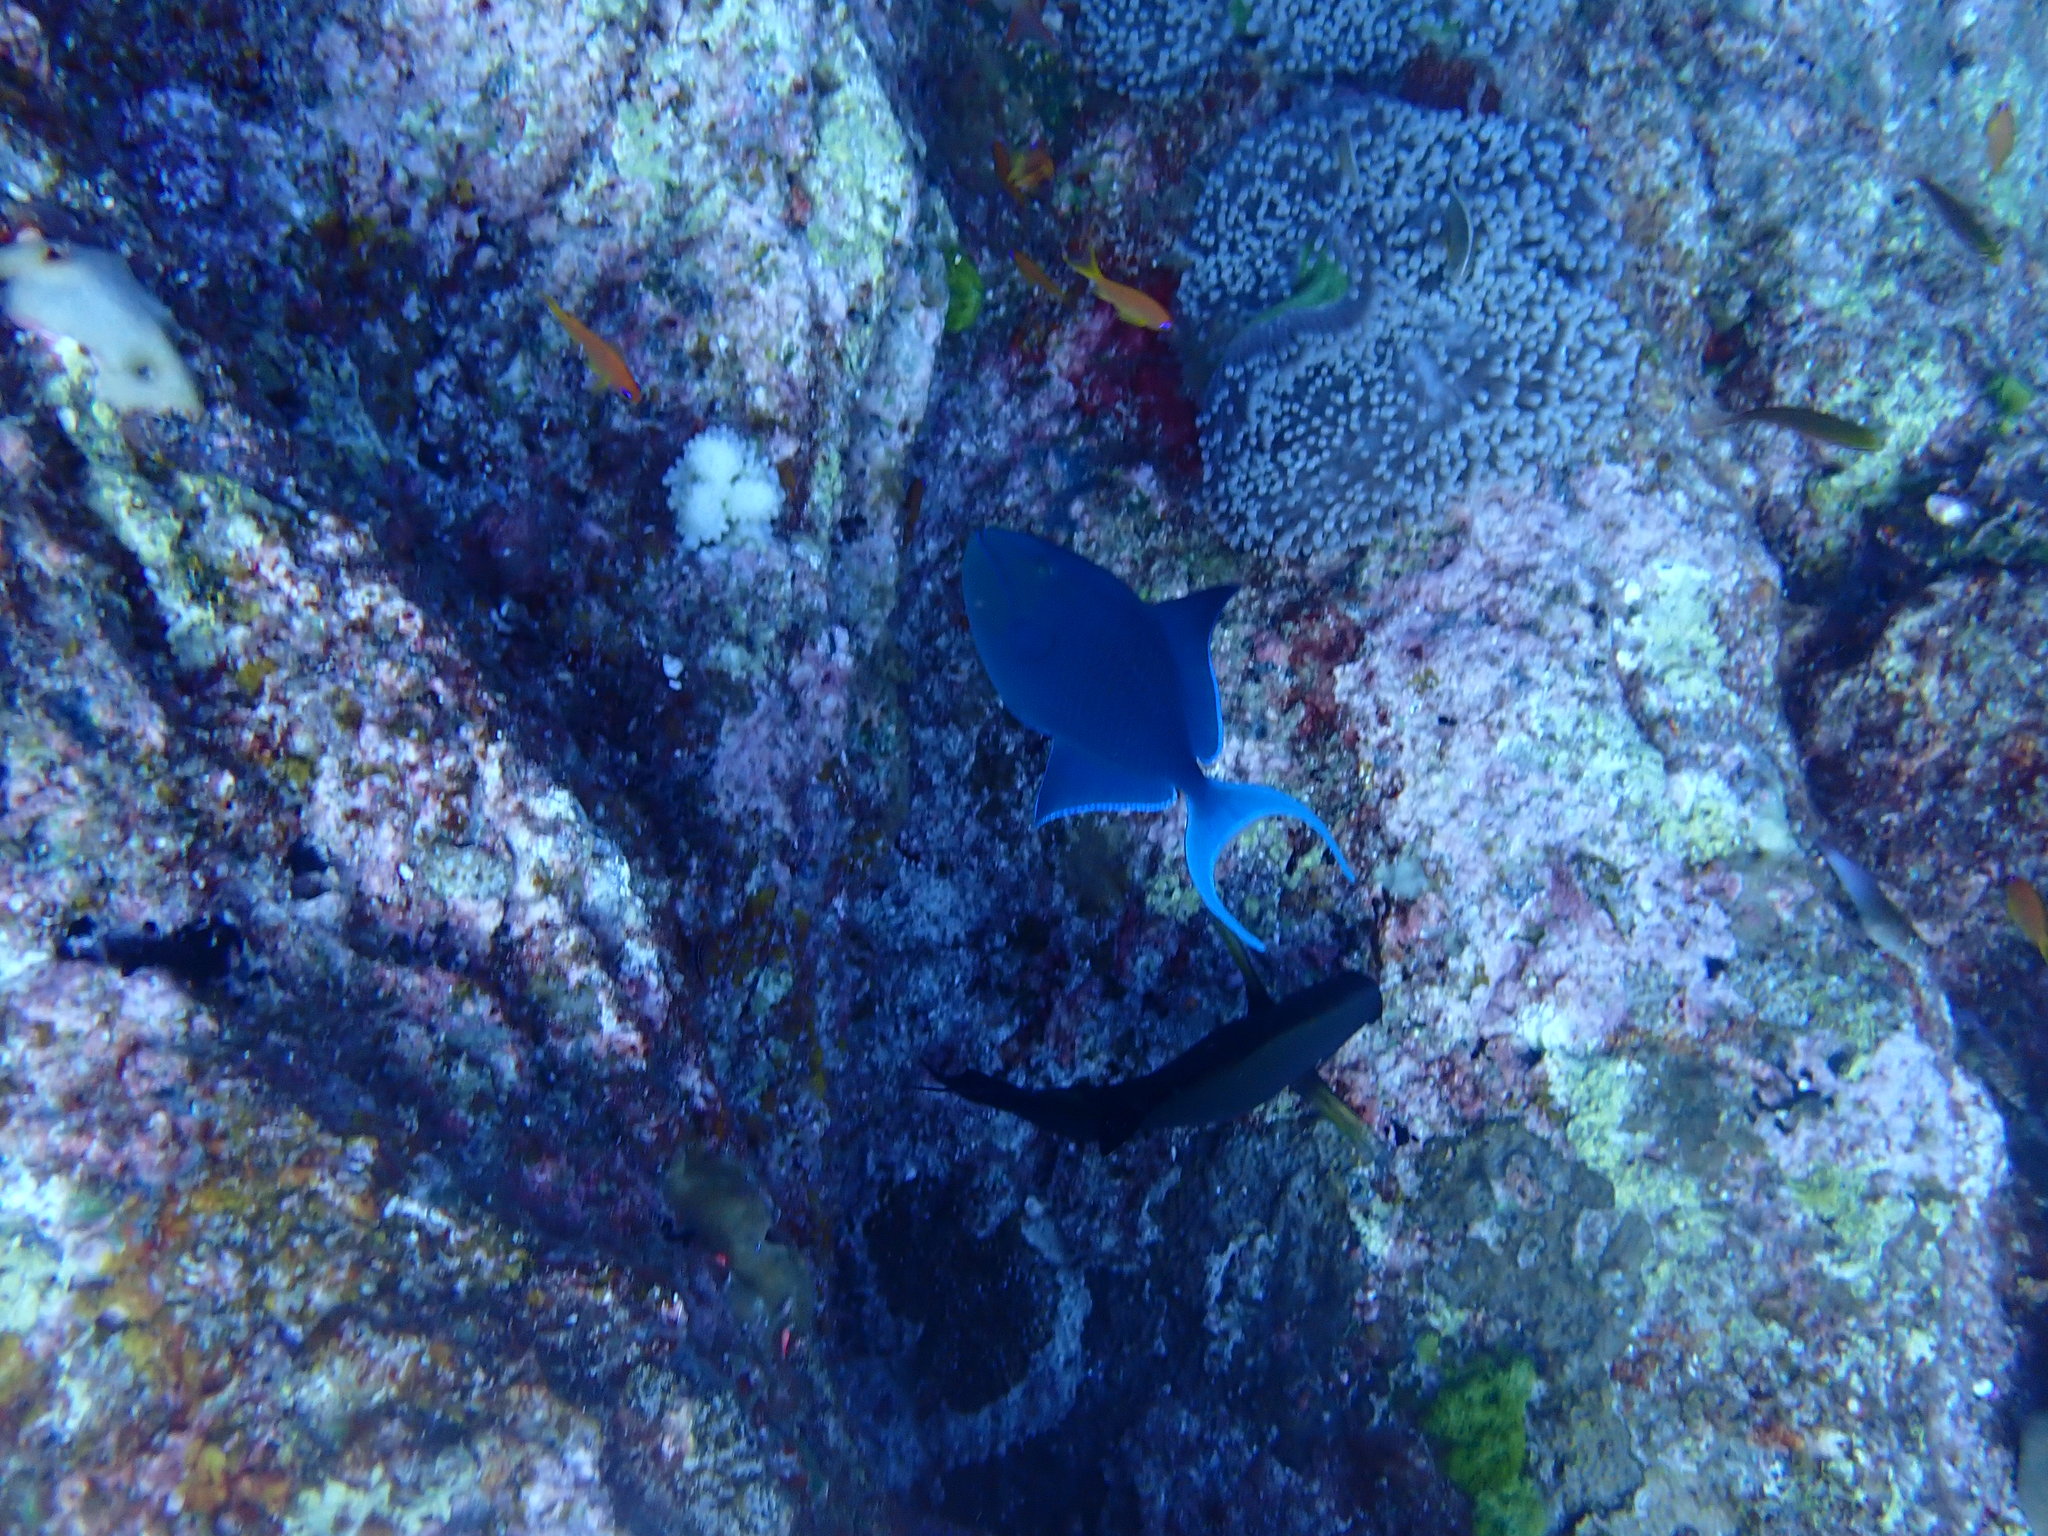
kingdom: Animalia
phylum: Chordata
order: Tetraodontiformes
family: Balistidae
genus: Odonus
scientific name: Odonus niger
